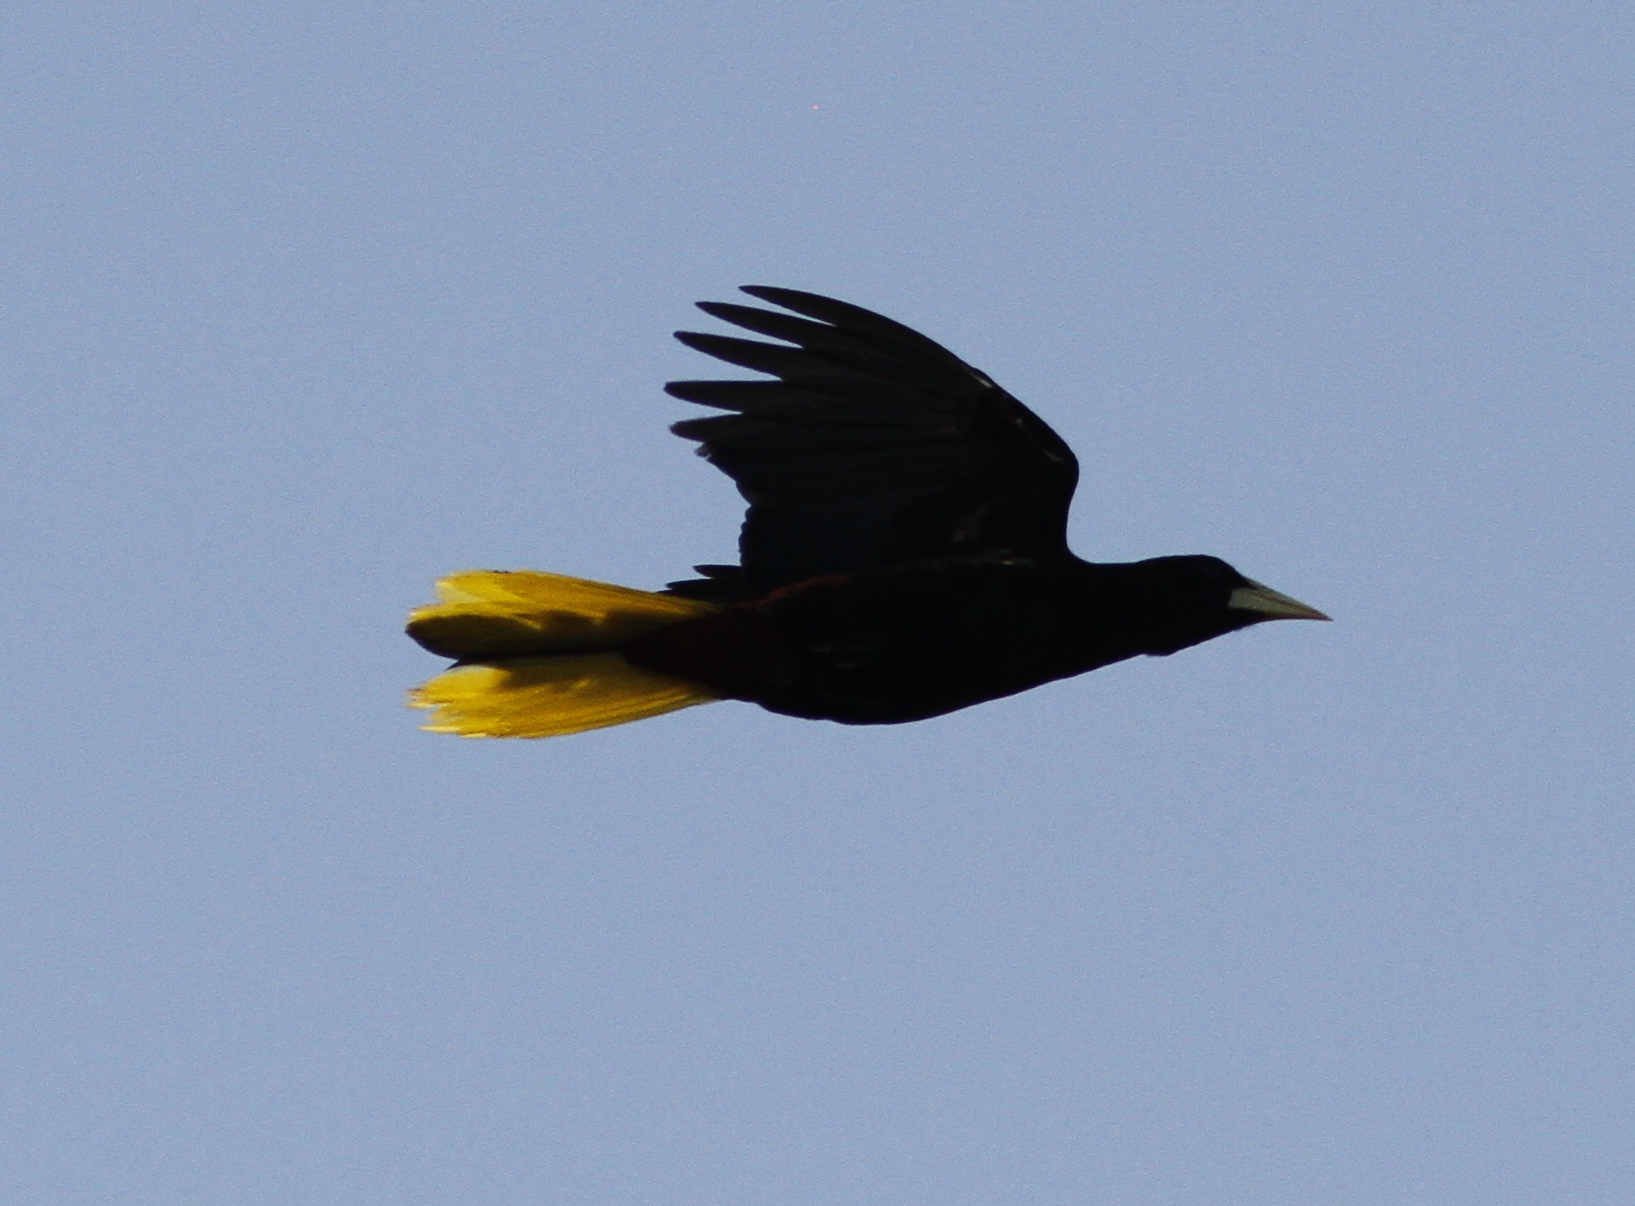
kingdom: Animalia
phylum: Chordata
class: Aves
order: Passeriformes
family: Icteridae
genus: Psarocolius
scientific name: Psarocolius decumanus
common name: Crested oropendola
